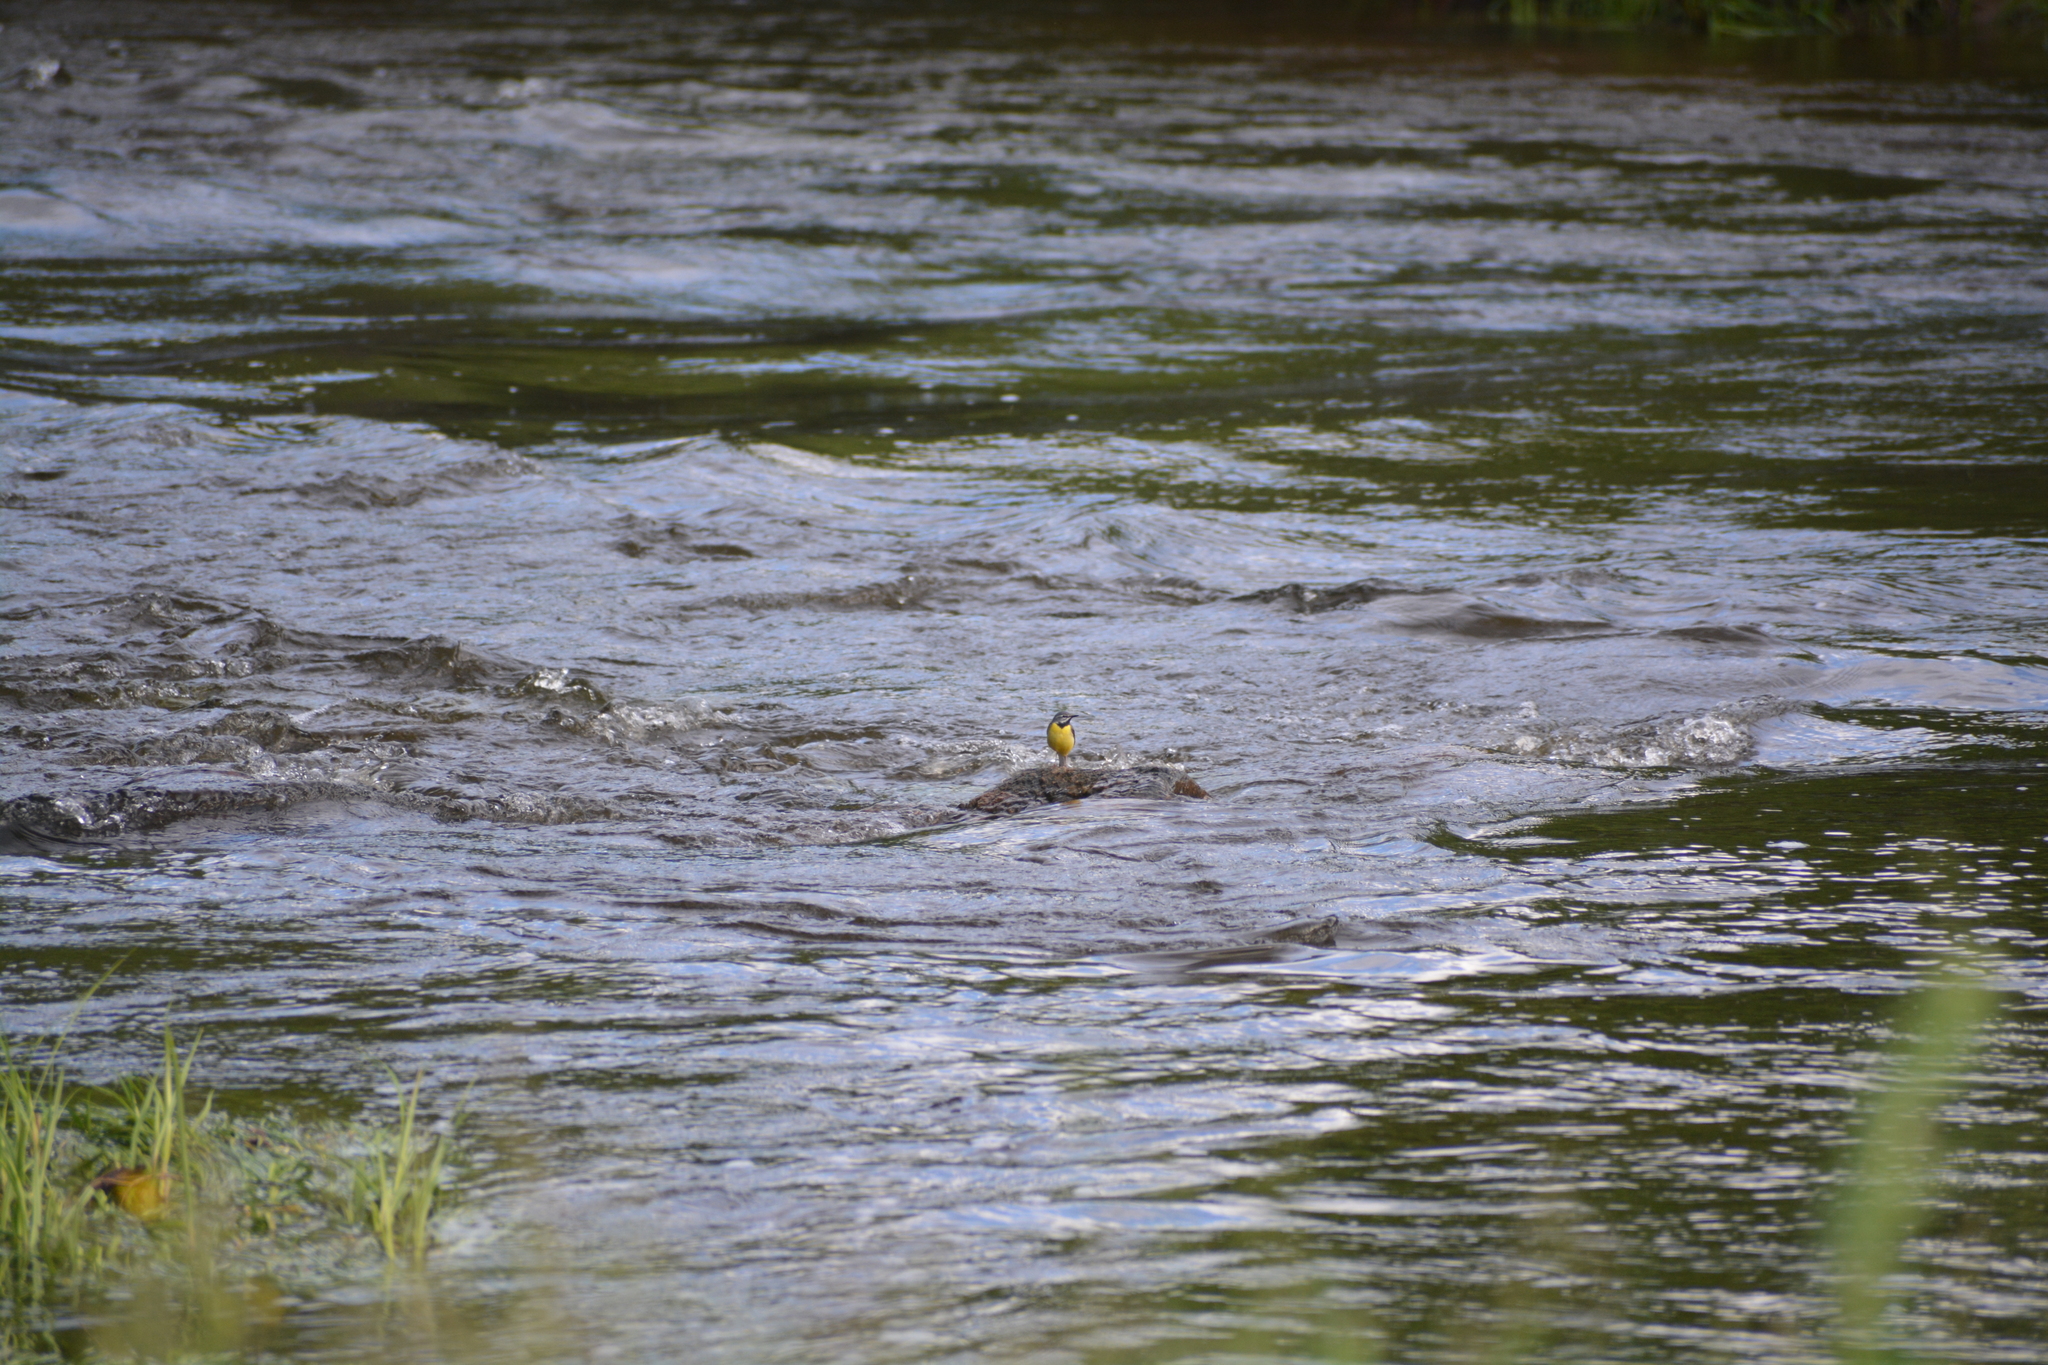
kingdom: Animalia
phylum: Chordata
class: Aves
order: Passeriformes
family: Motacillidae
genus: Motacilla
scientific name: Motacilla cinerea
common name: Grey wagtail
